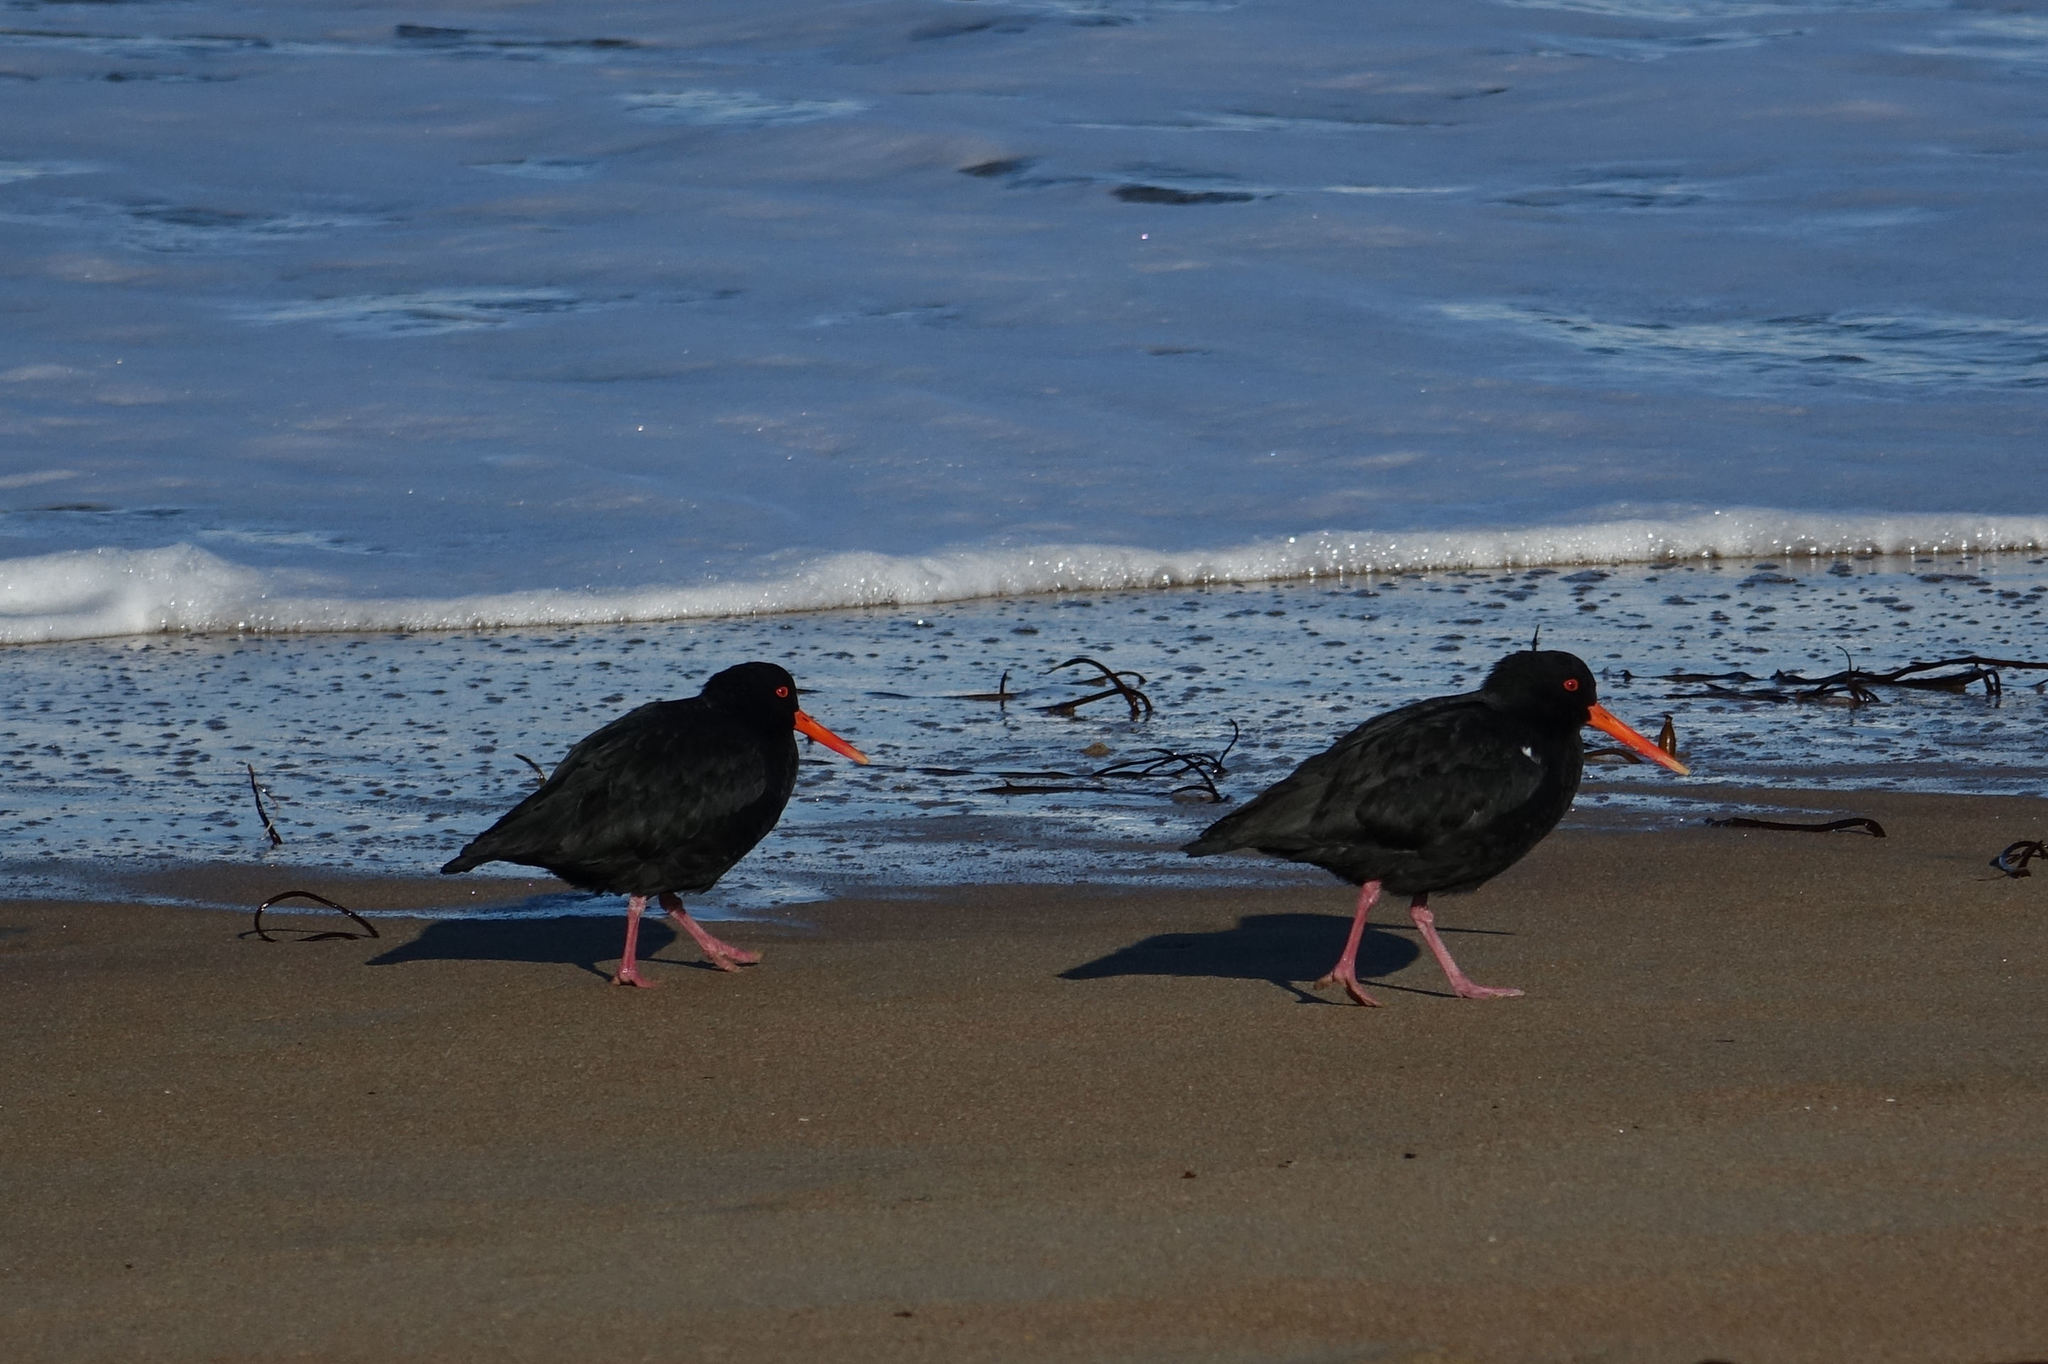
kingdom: Animalia
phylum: Chordata
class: Aves
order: Charadriiformes
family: Haematopodidae
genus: Haematopus
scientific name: Haematopus unicolor
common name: Variable oystercatcher
